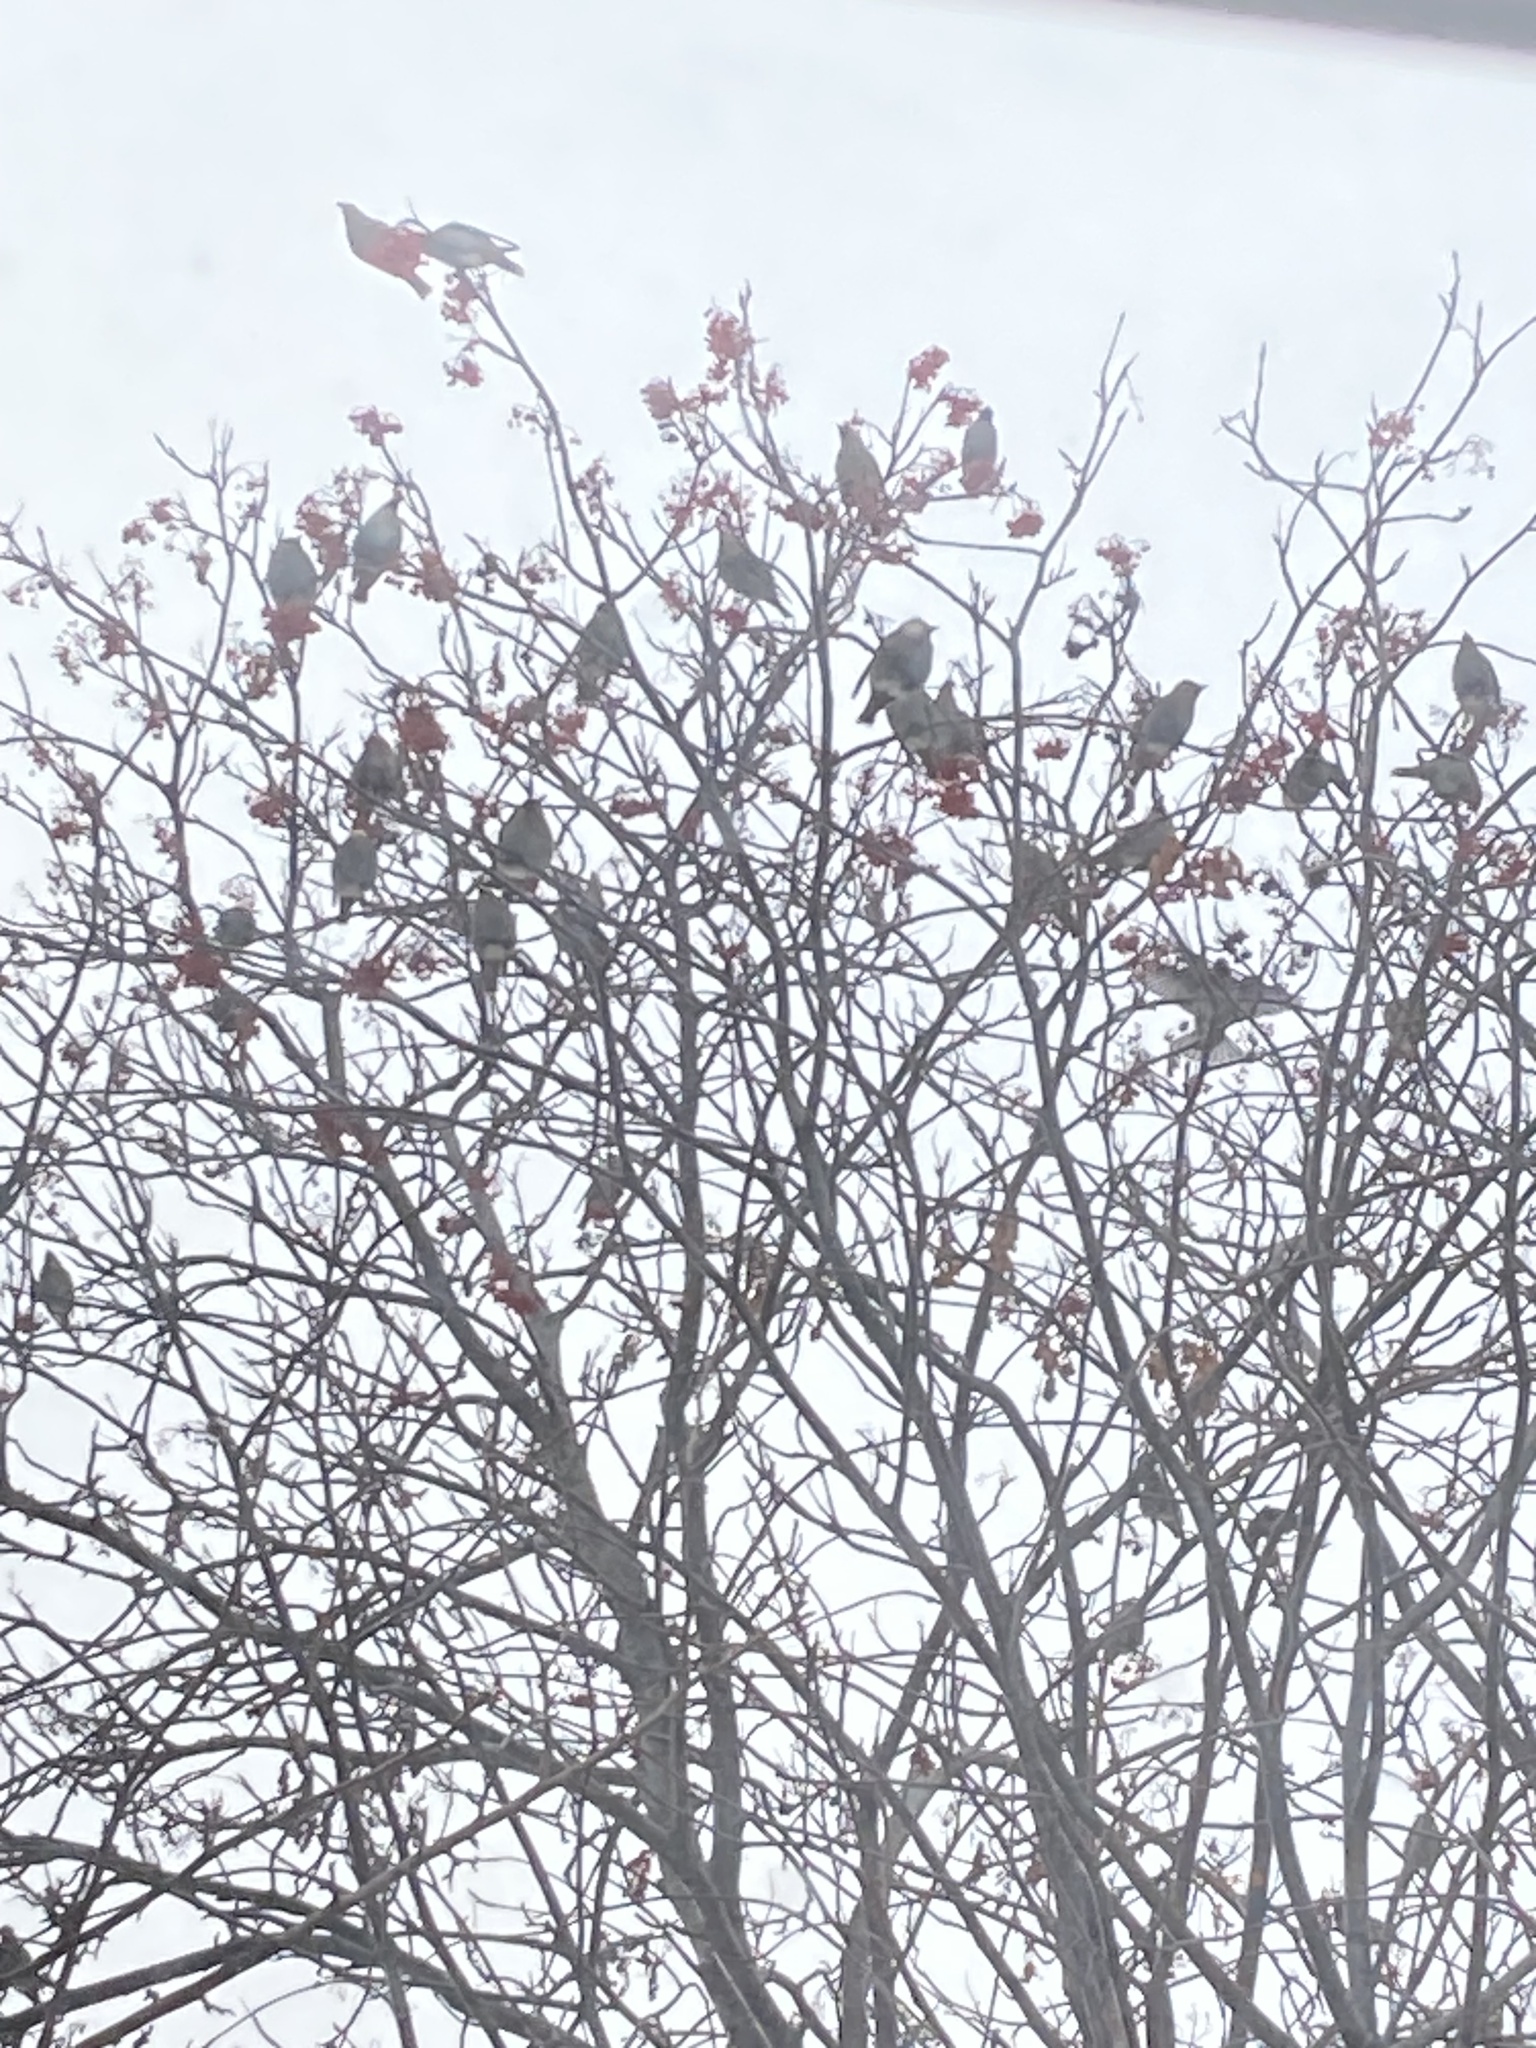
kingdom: Animalia
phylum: Chordata
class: Aves
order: Passeriformes
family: Bombycillidae
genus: Bombycilla
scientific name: Bombycilla garrulus
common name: Bohemian waxwing
